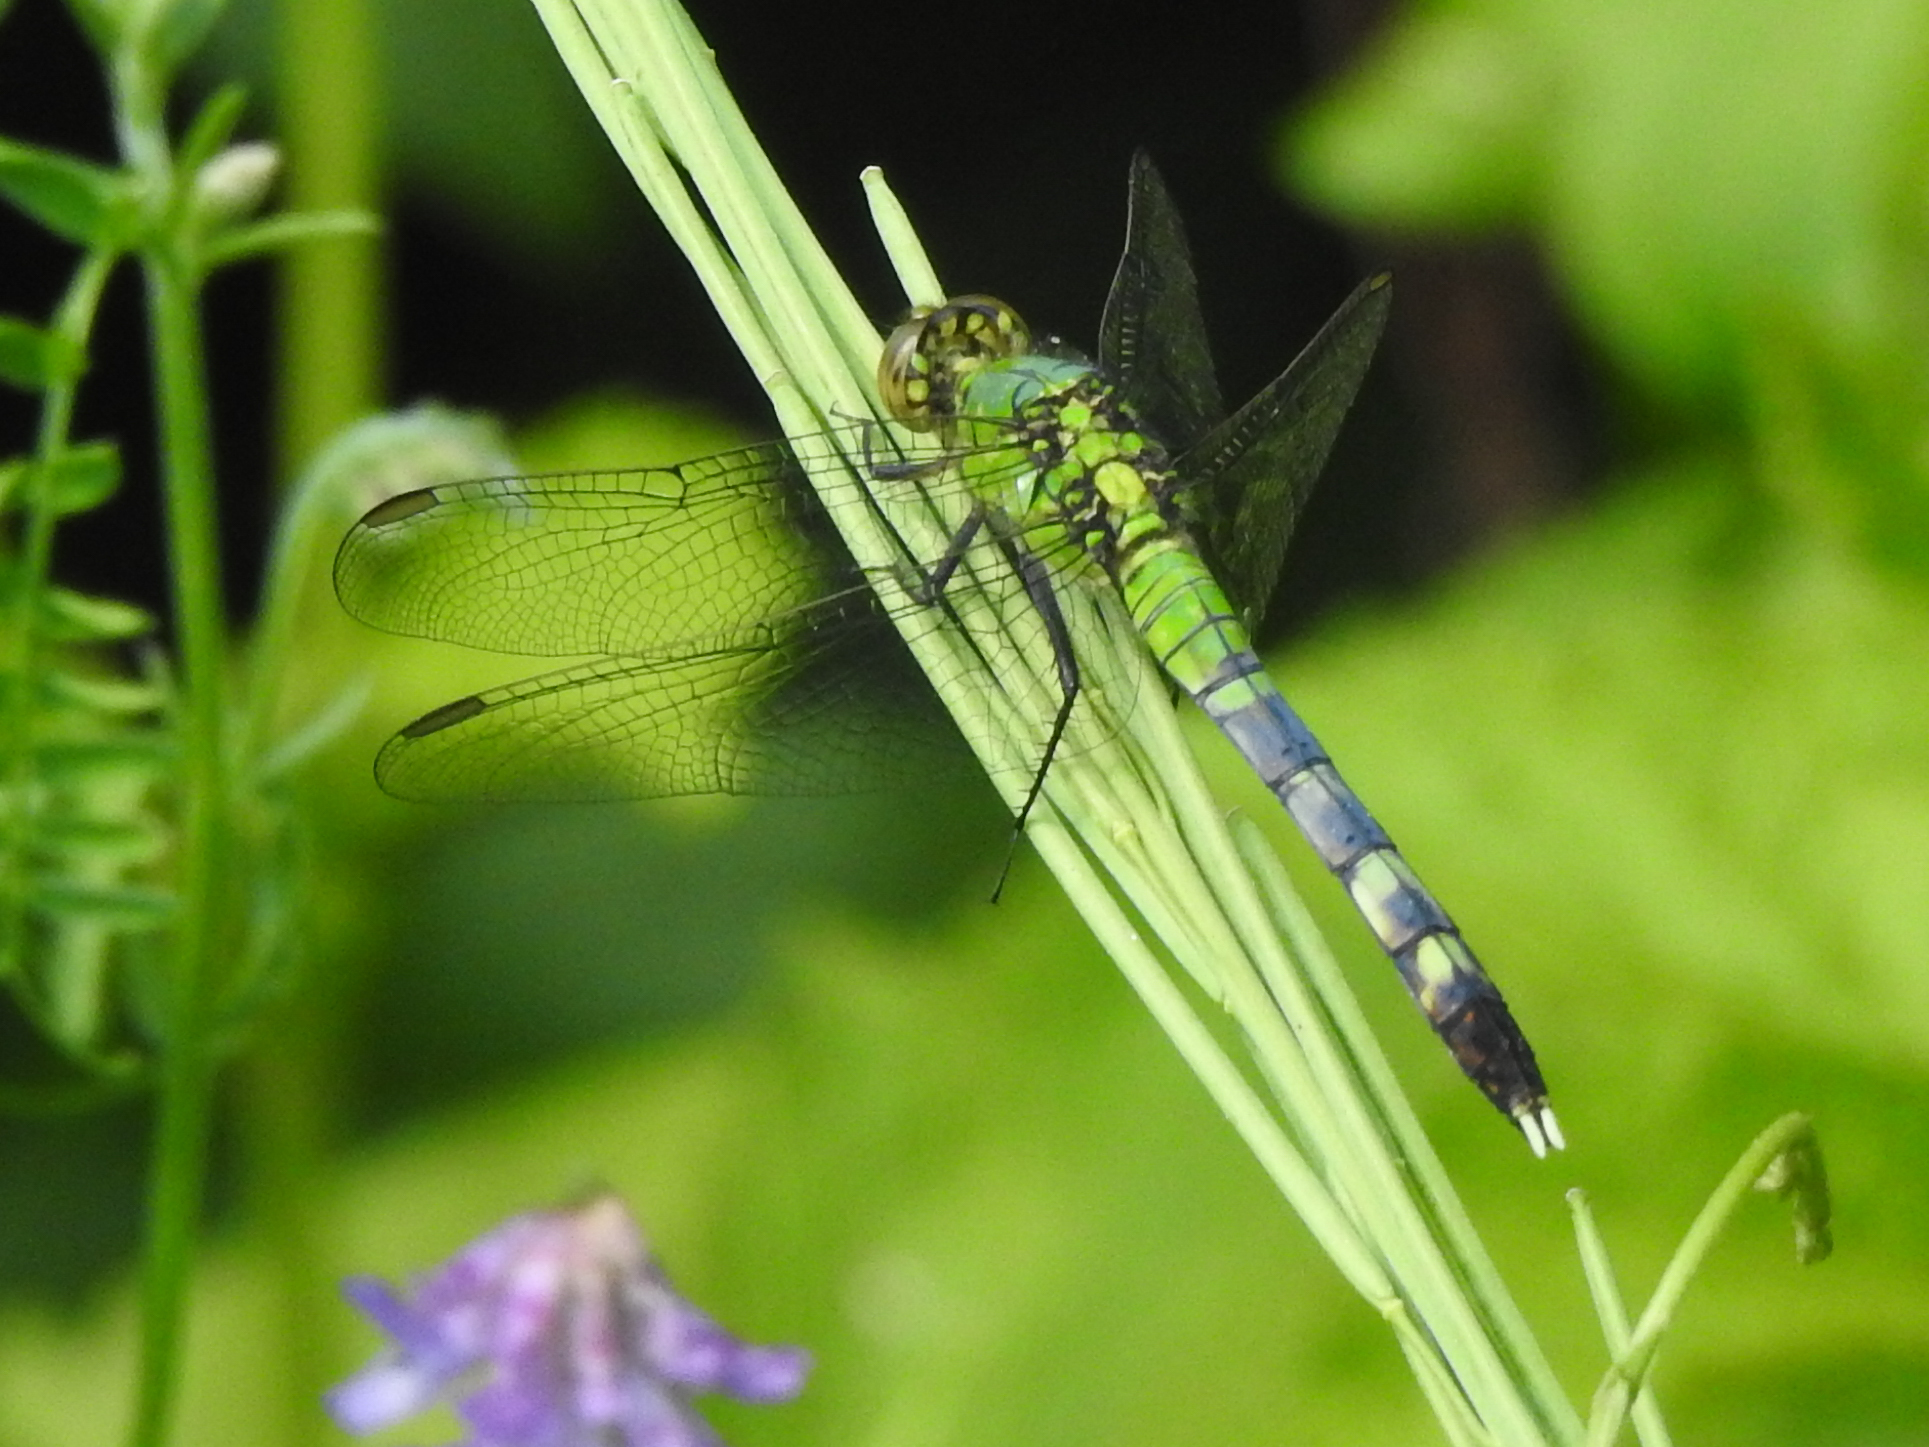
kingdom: Animalia
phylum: Arthropoda
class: Insecta
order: Odonata
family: Libellulidae
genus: Erythemis
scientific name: Erythemis simplicicollis
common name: Eastern pondhawk
